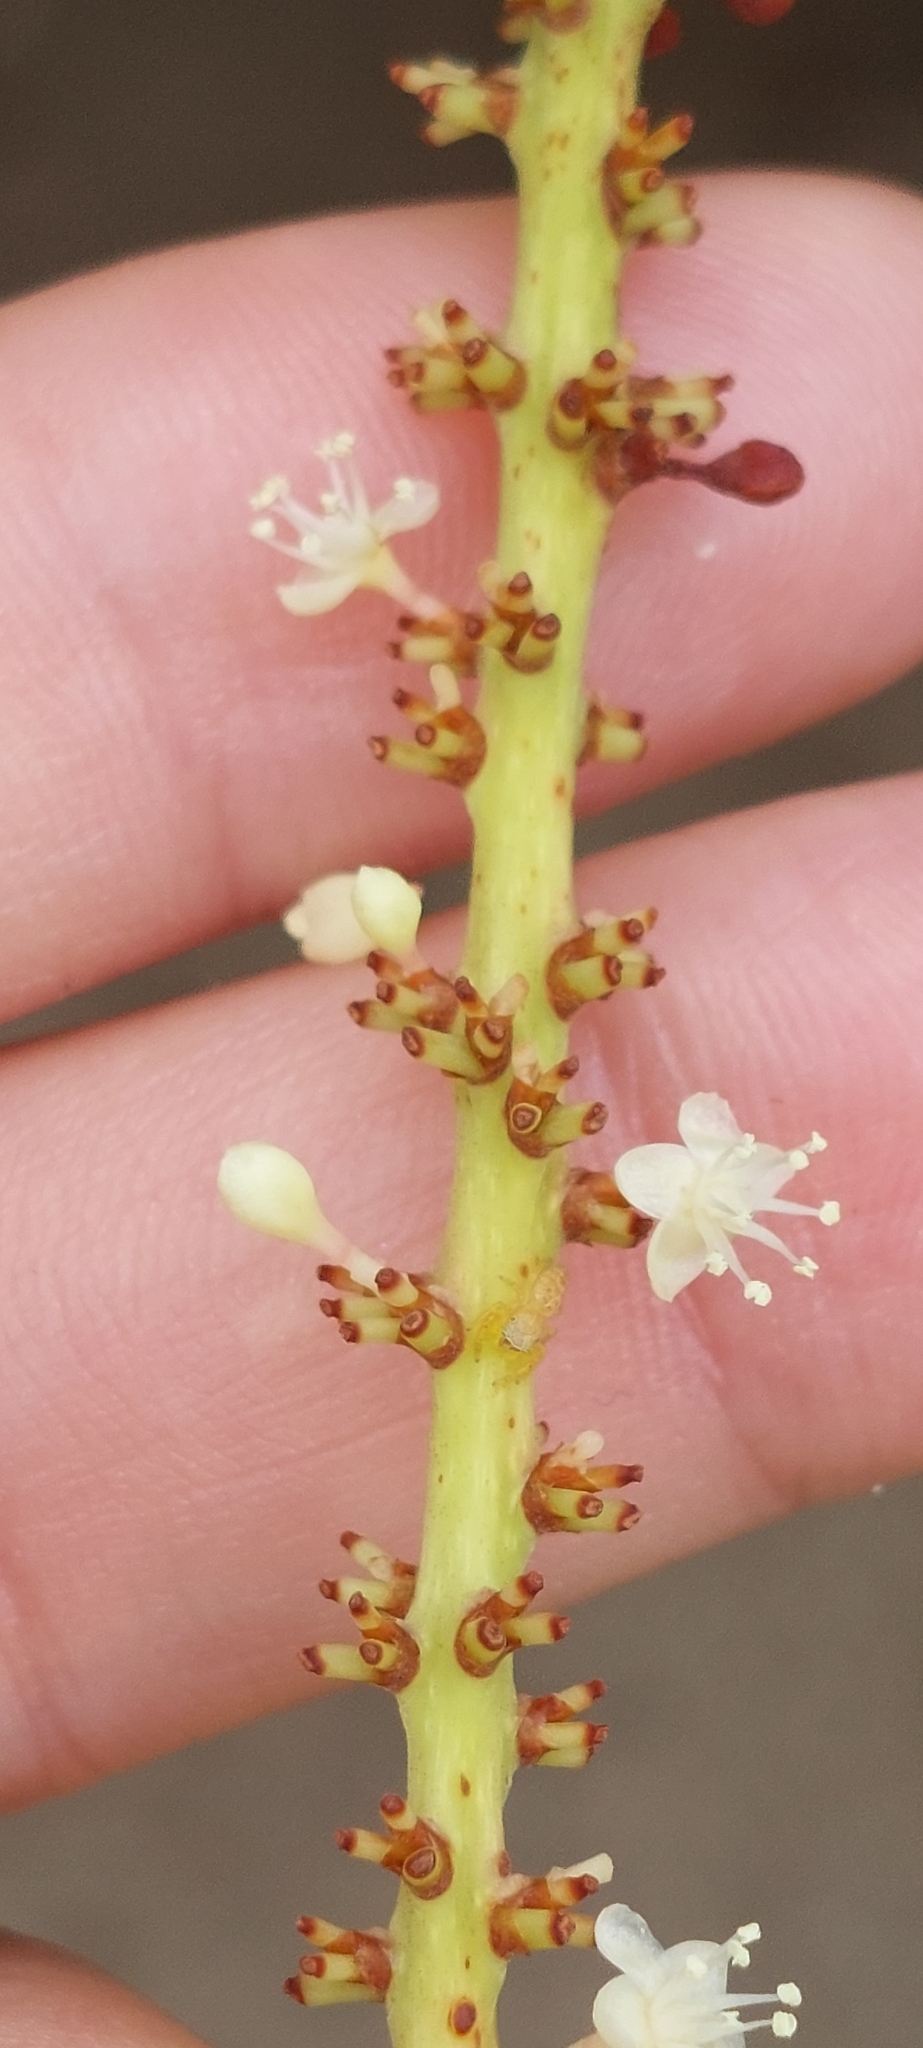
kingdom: Plantae
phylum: Tracheophyta
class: Magnoliopsida
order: Caryophyllales
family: Polygonaceae
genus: Coccoloba
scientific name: Coccoloba uvifera
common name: Seagrape
